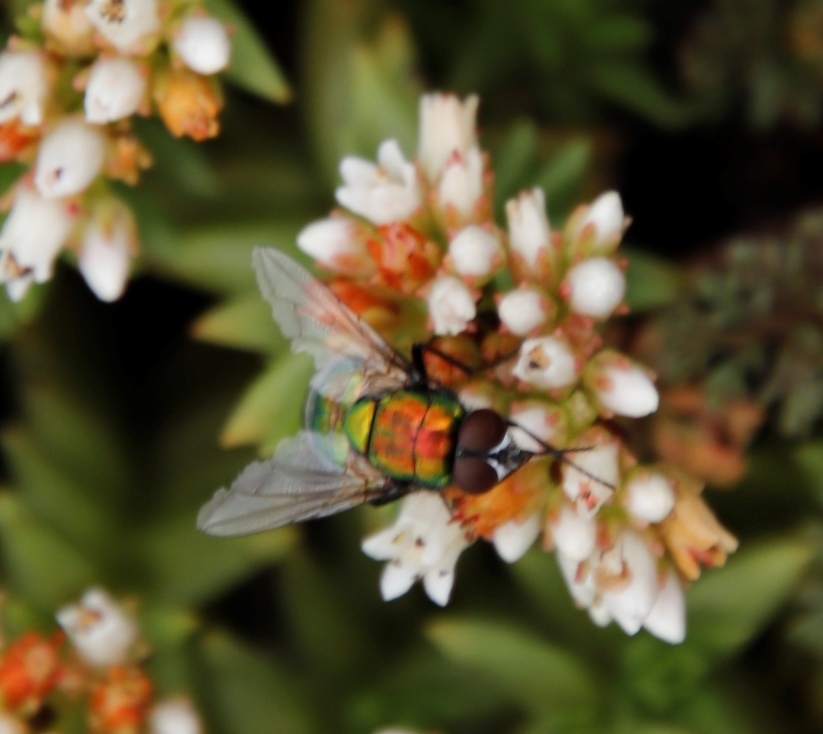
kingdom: Plantae
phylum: Tracheophyta
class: Magnoliopsida
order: Saxifragales
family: Crassulaceae
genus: Crassula
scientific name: Crassula dependens
